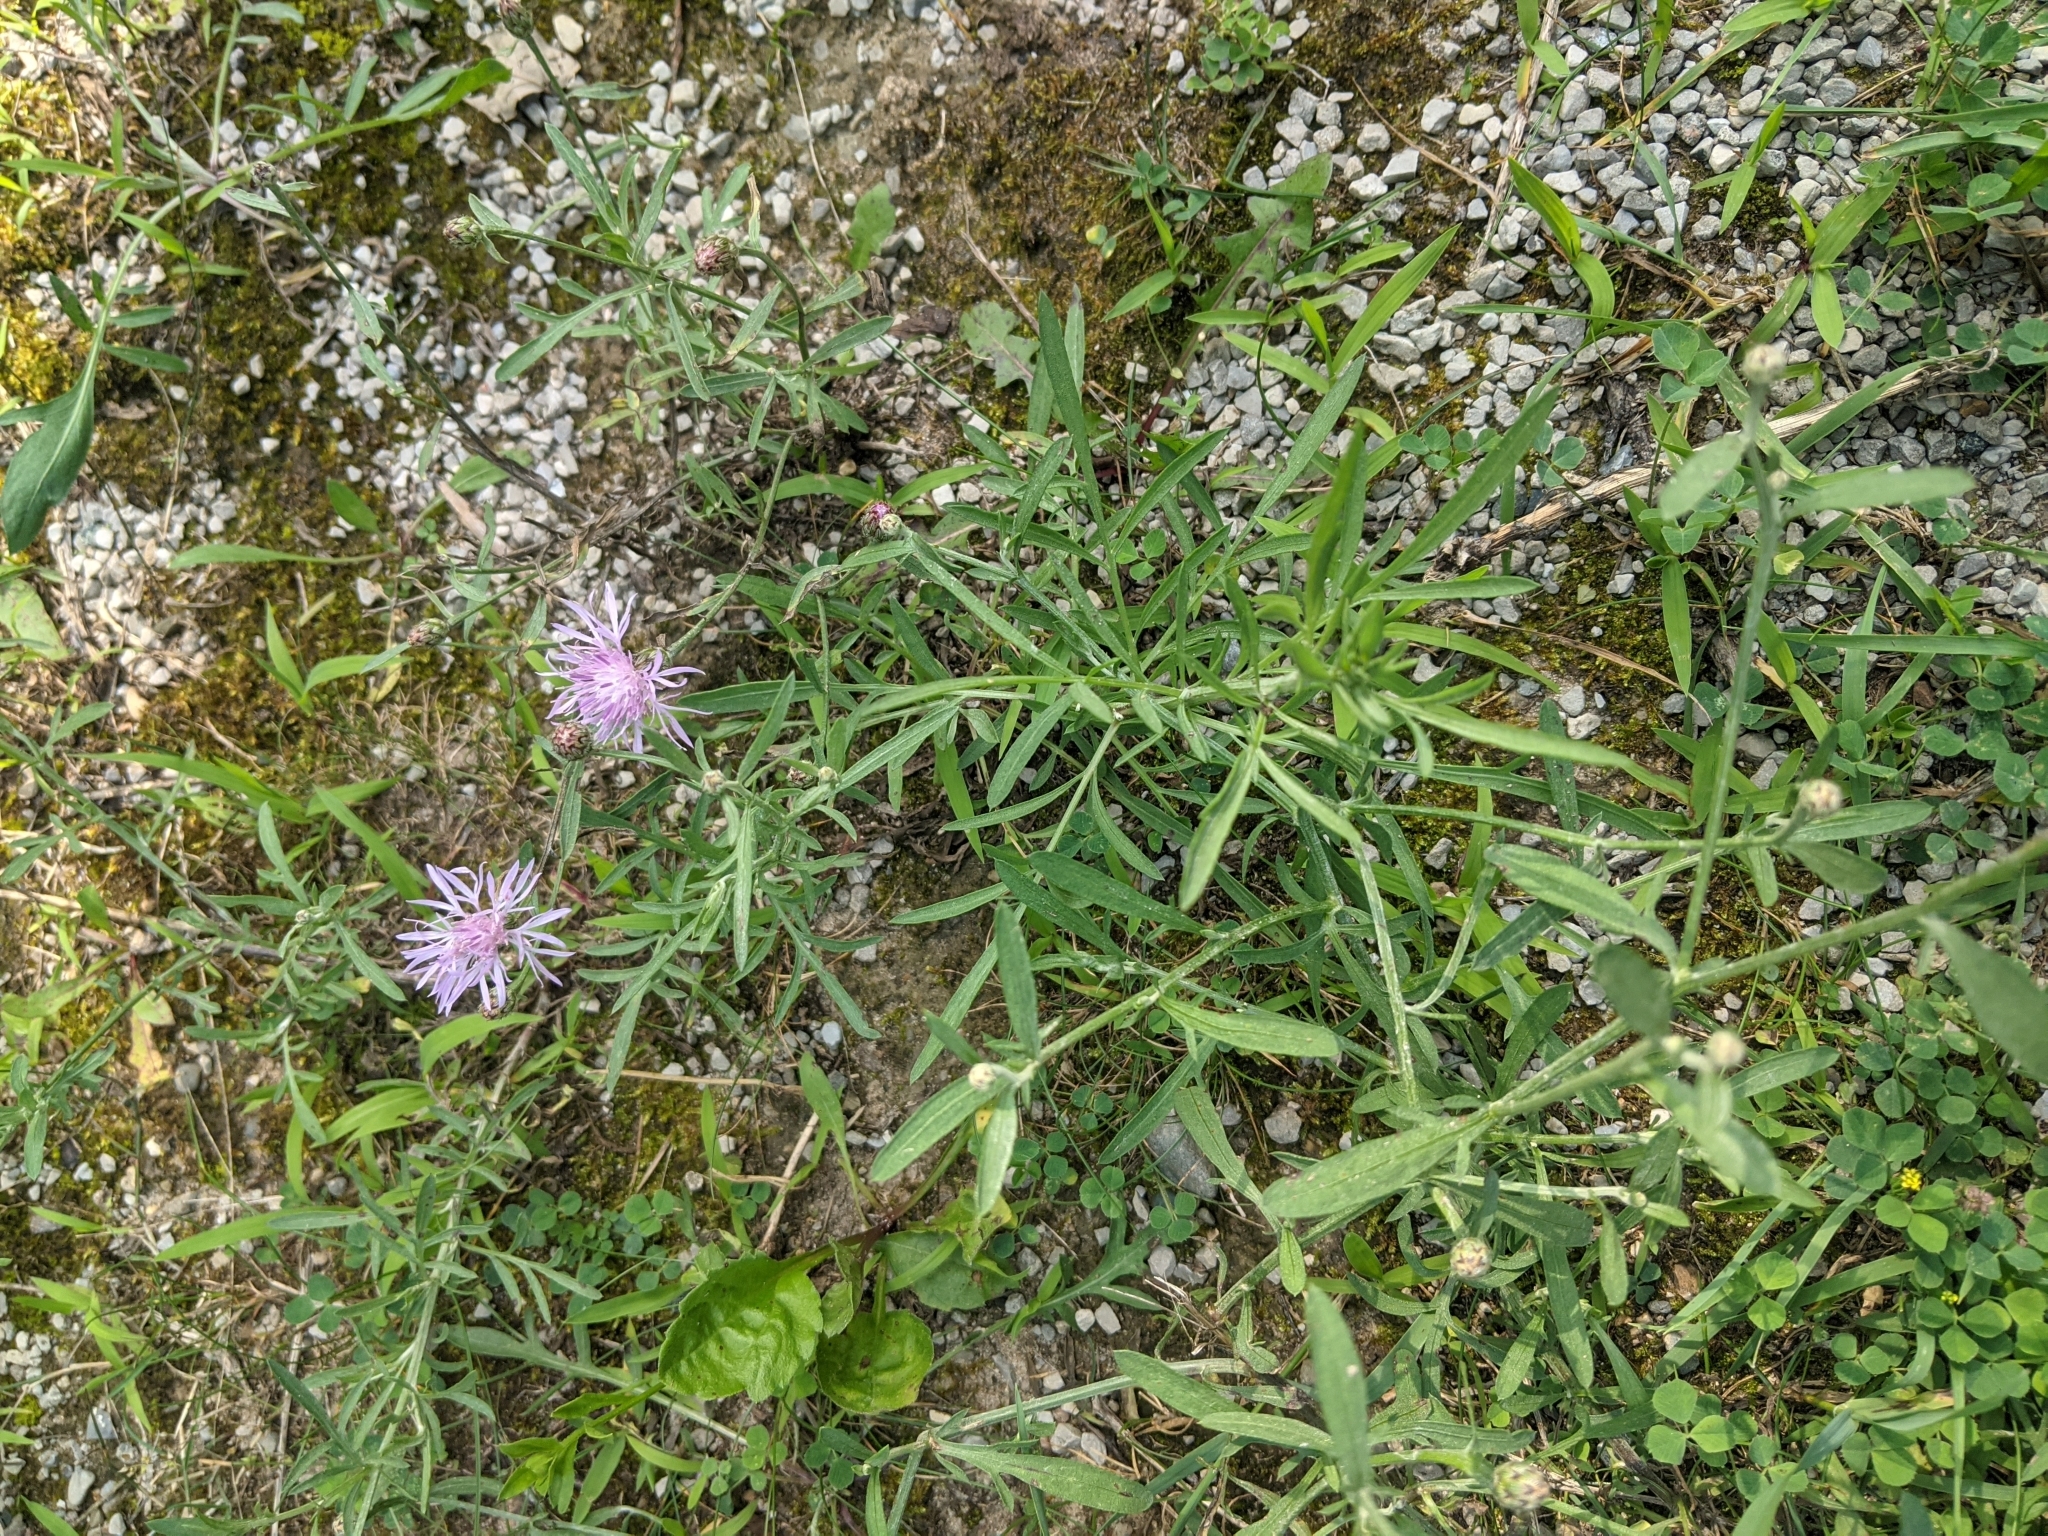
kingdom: Plantae
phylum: Tracheophyta
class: Magnoliopsida
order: Asterales
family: Asteraceae
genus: Centaurea
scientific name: Centaurea stoebe
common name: Spotted knapweed
